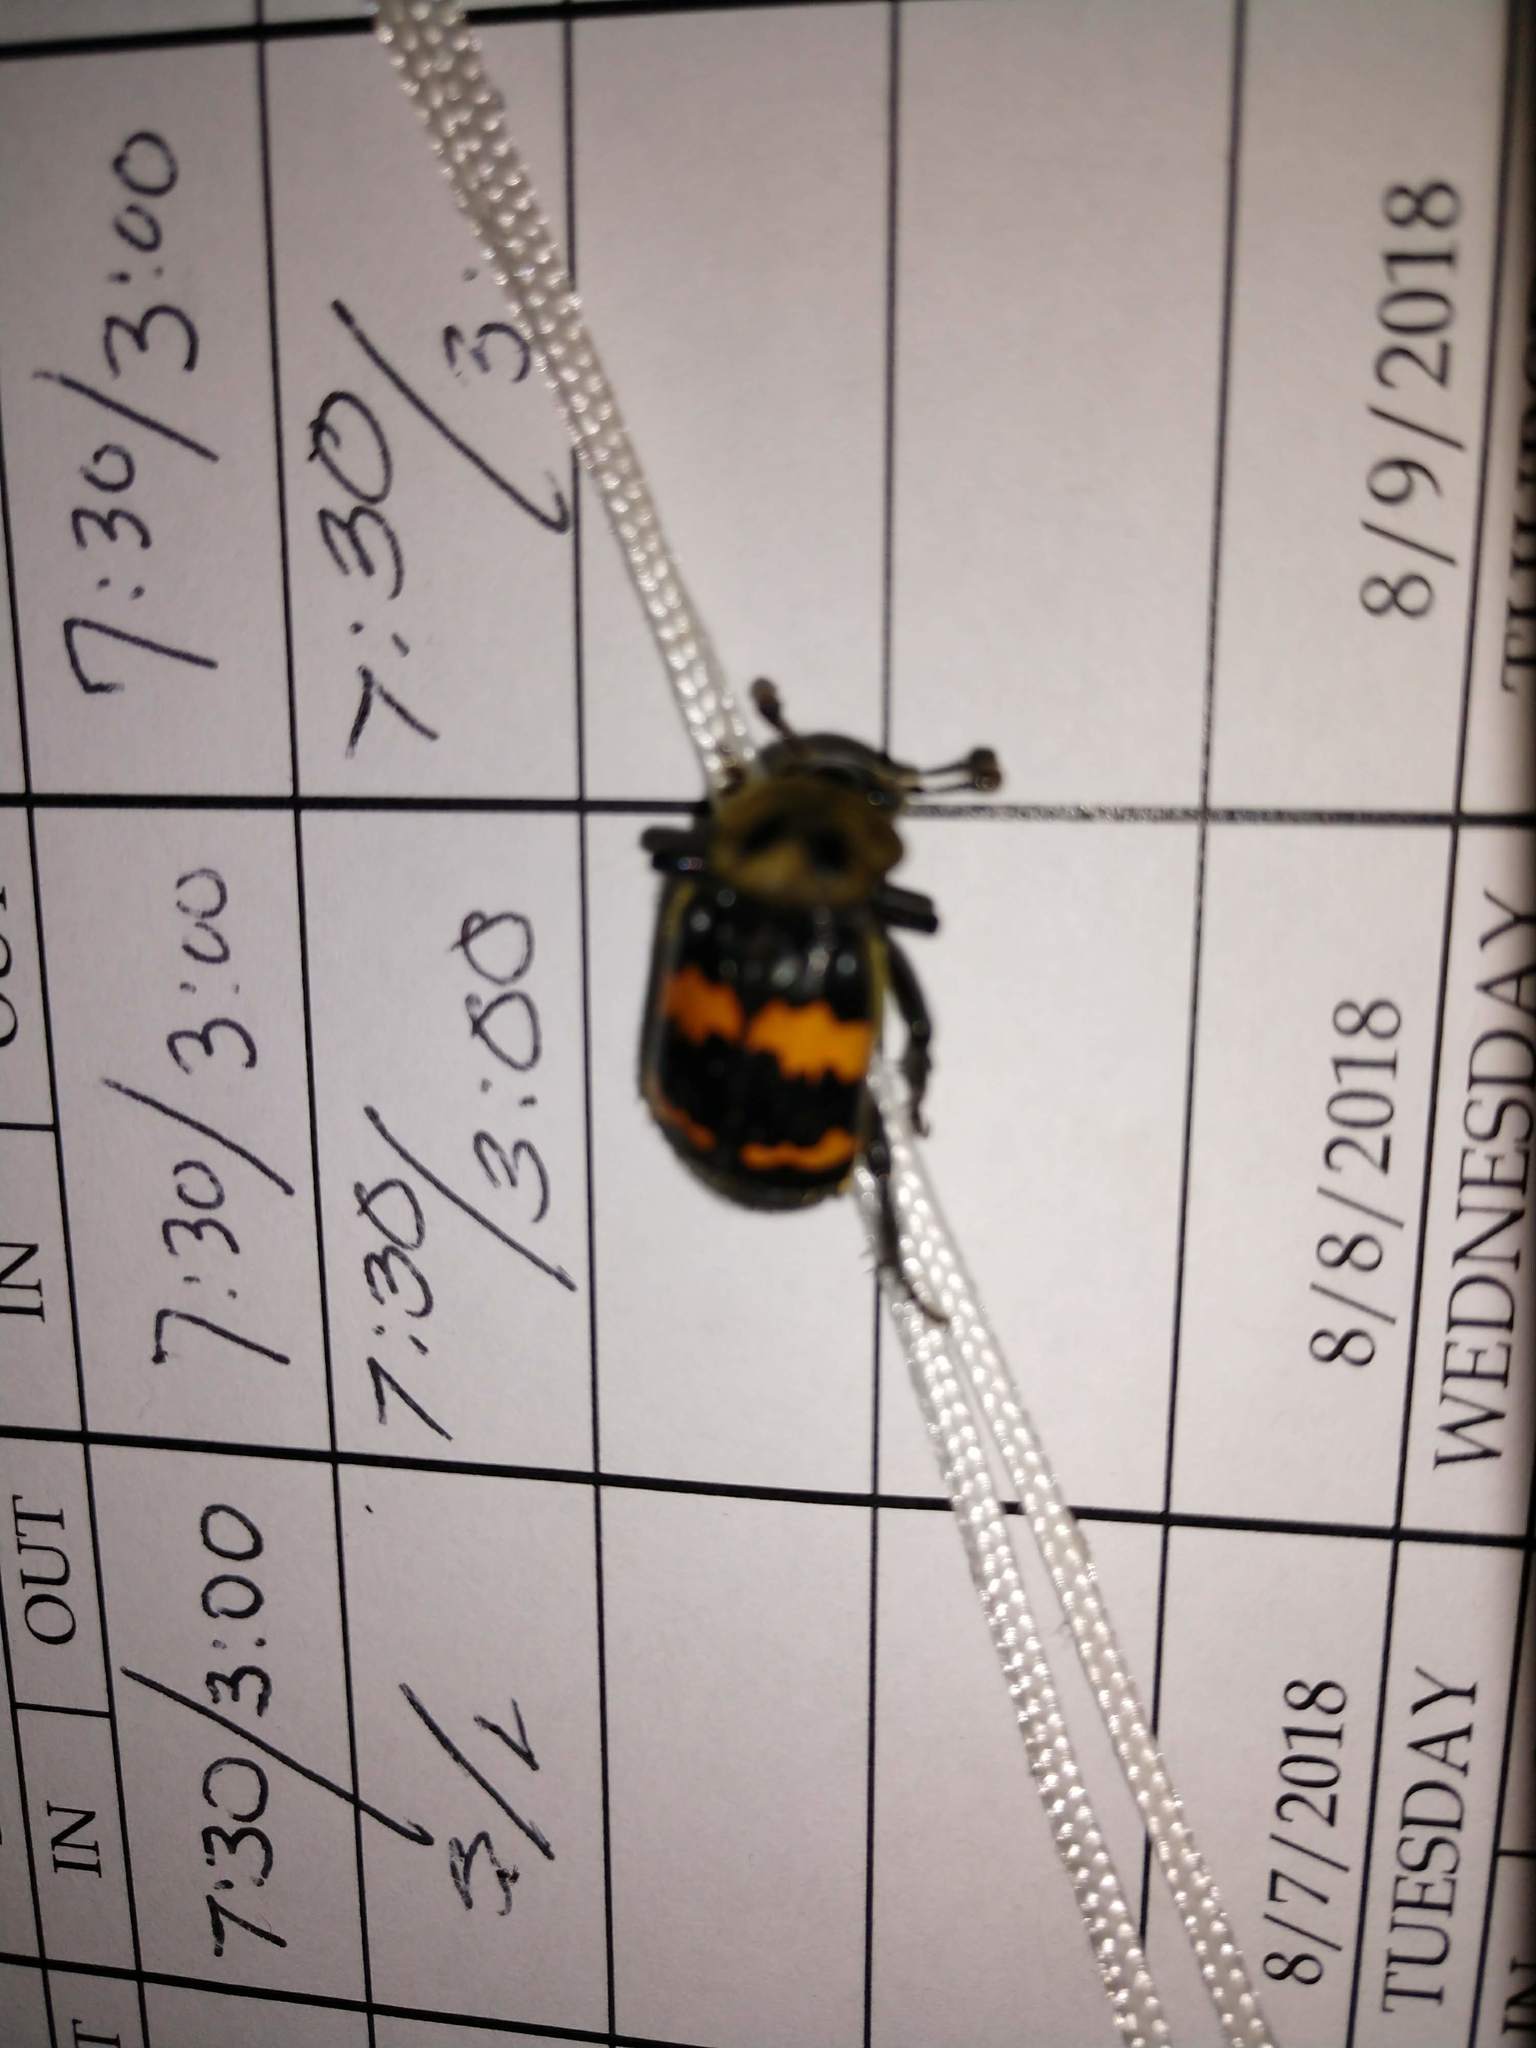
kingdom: Animalia
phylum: Arthropoda
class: Insecta
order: Coleoptera
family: Staphylinidae
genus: Nicrophorus
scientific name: Nicrophorus tomentosus
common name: Tomentose burying beetle
